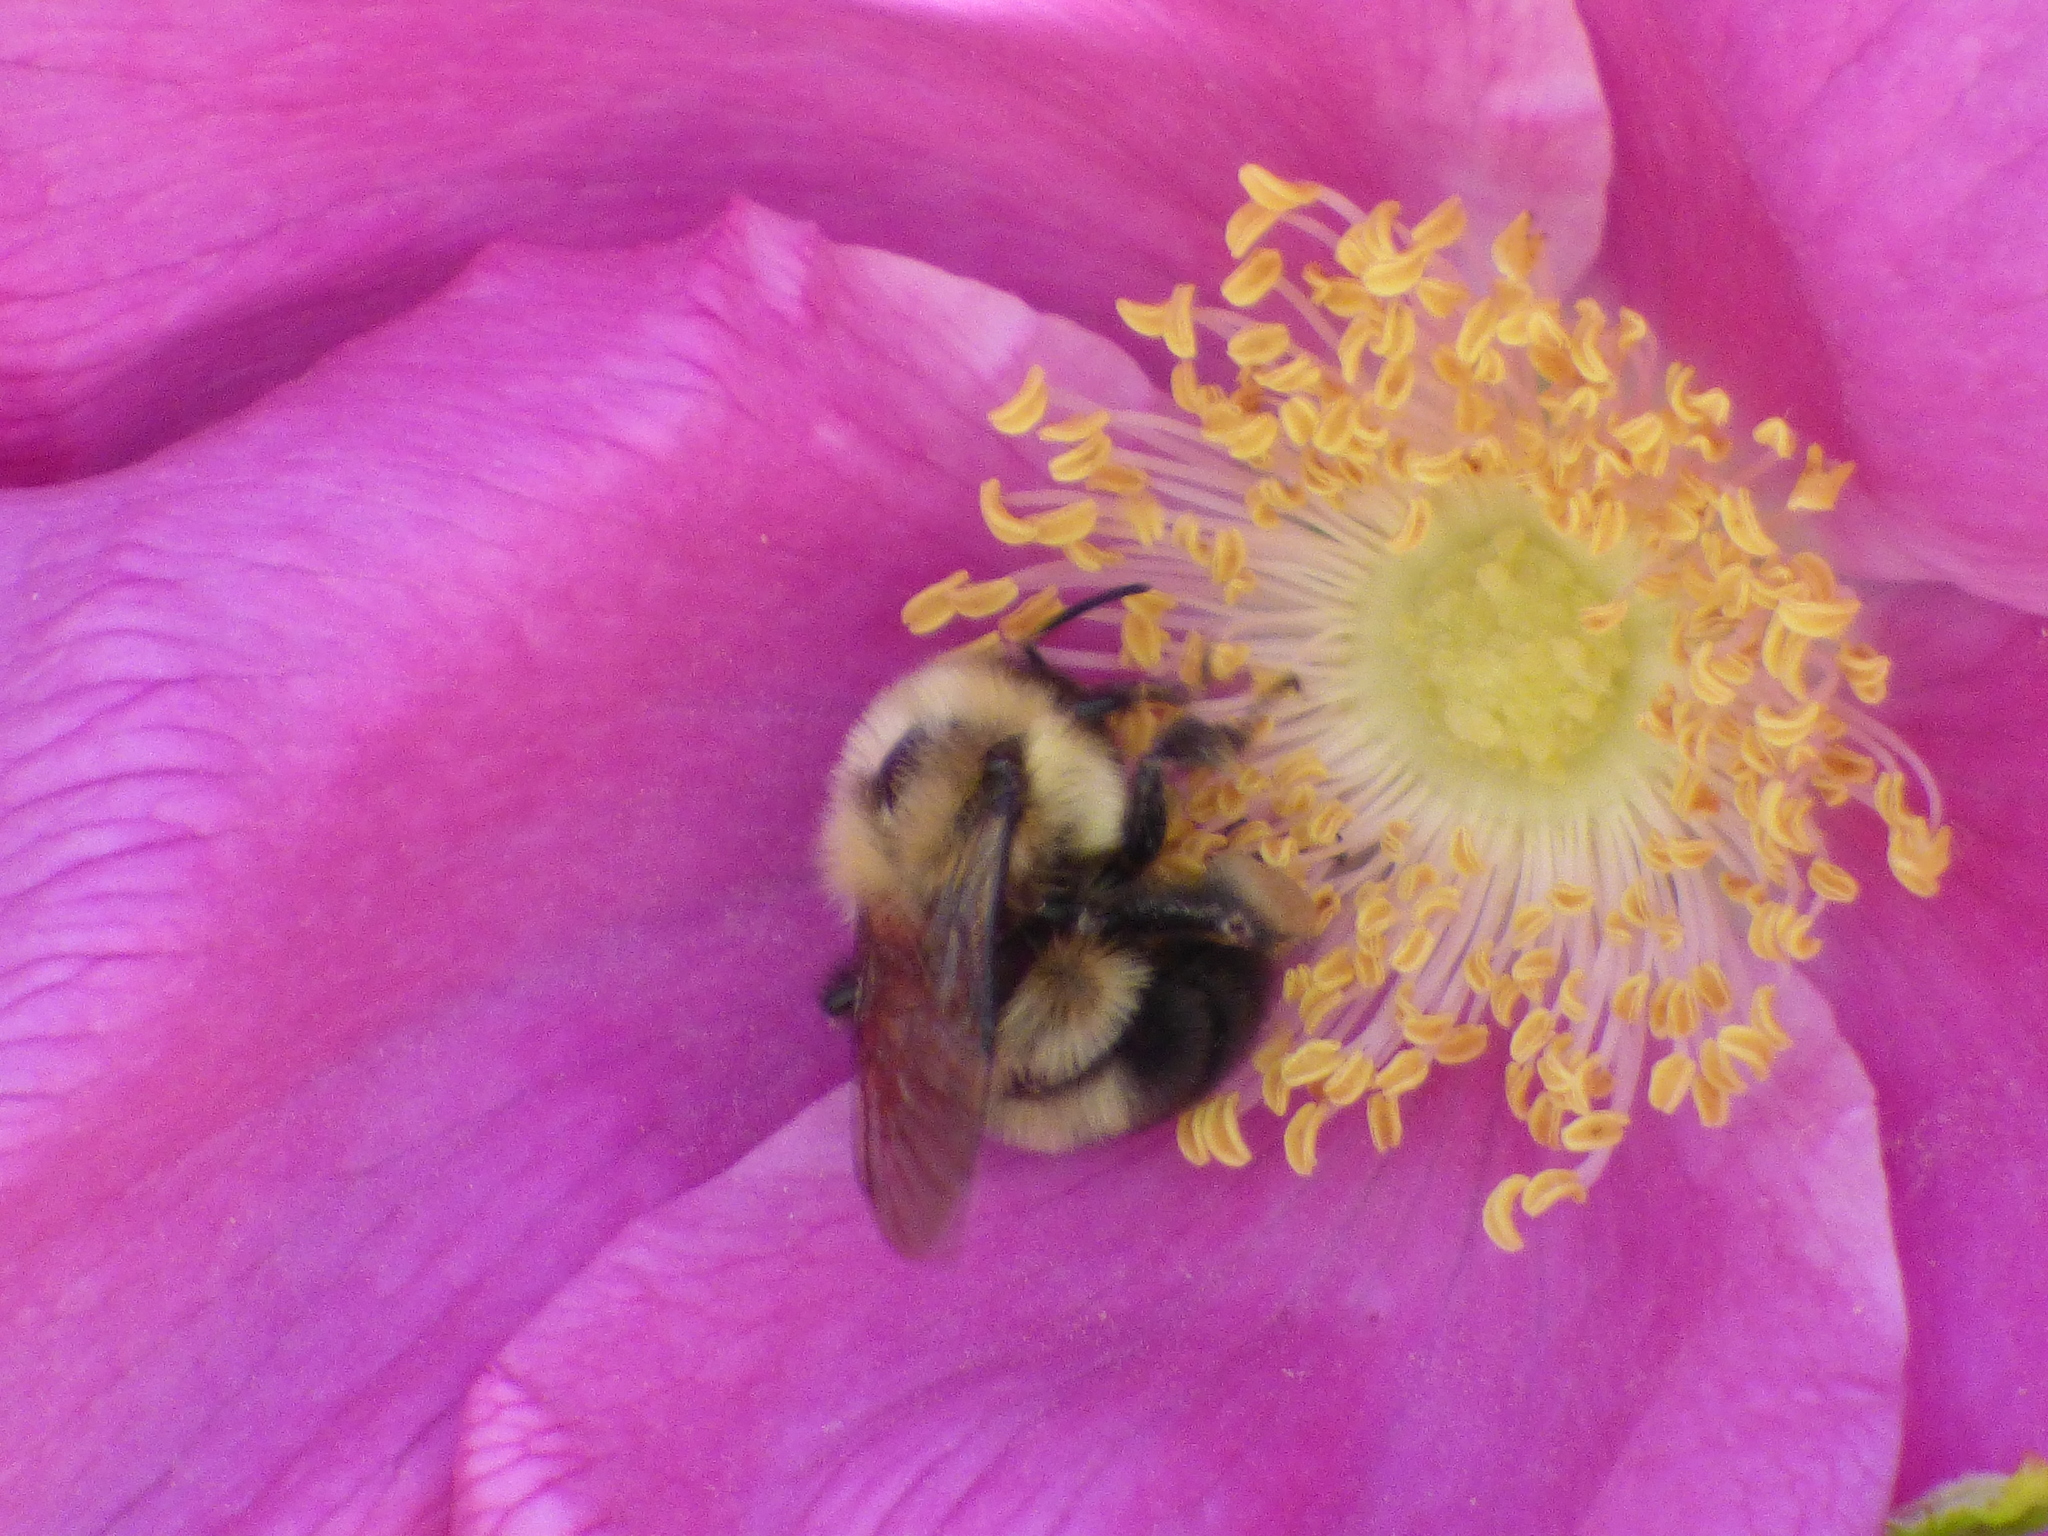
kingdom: Animalia
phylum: Arthropoda
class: Insecta
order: Hymenoptera
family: Apidae
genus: Bombus
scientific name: Bombus bimaculatus
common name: Two-spotted bumble bee
